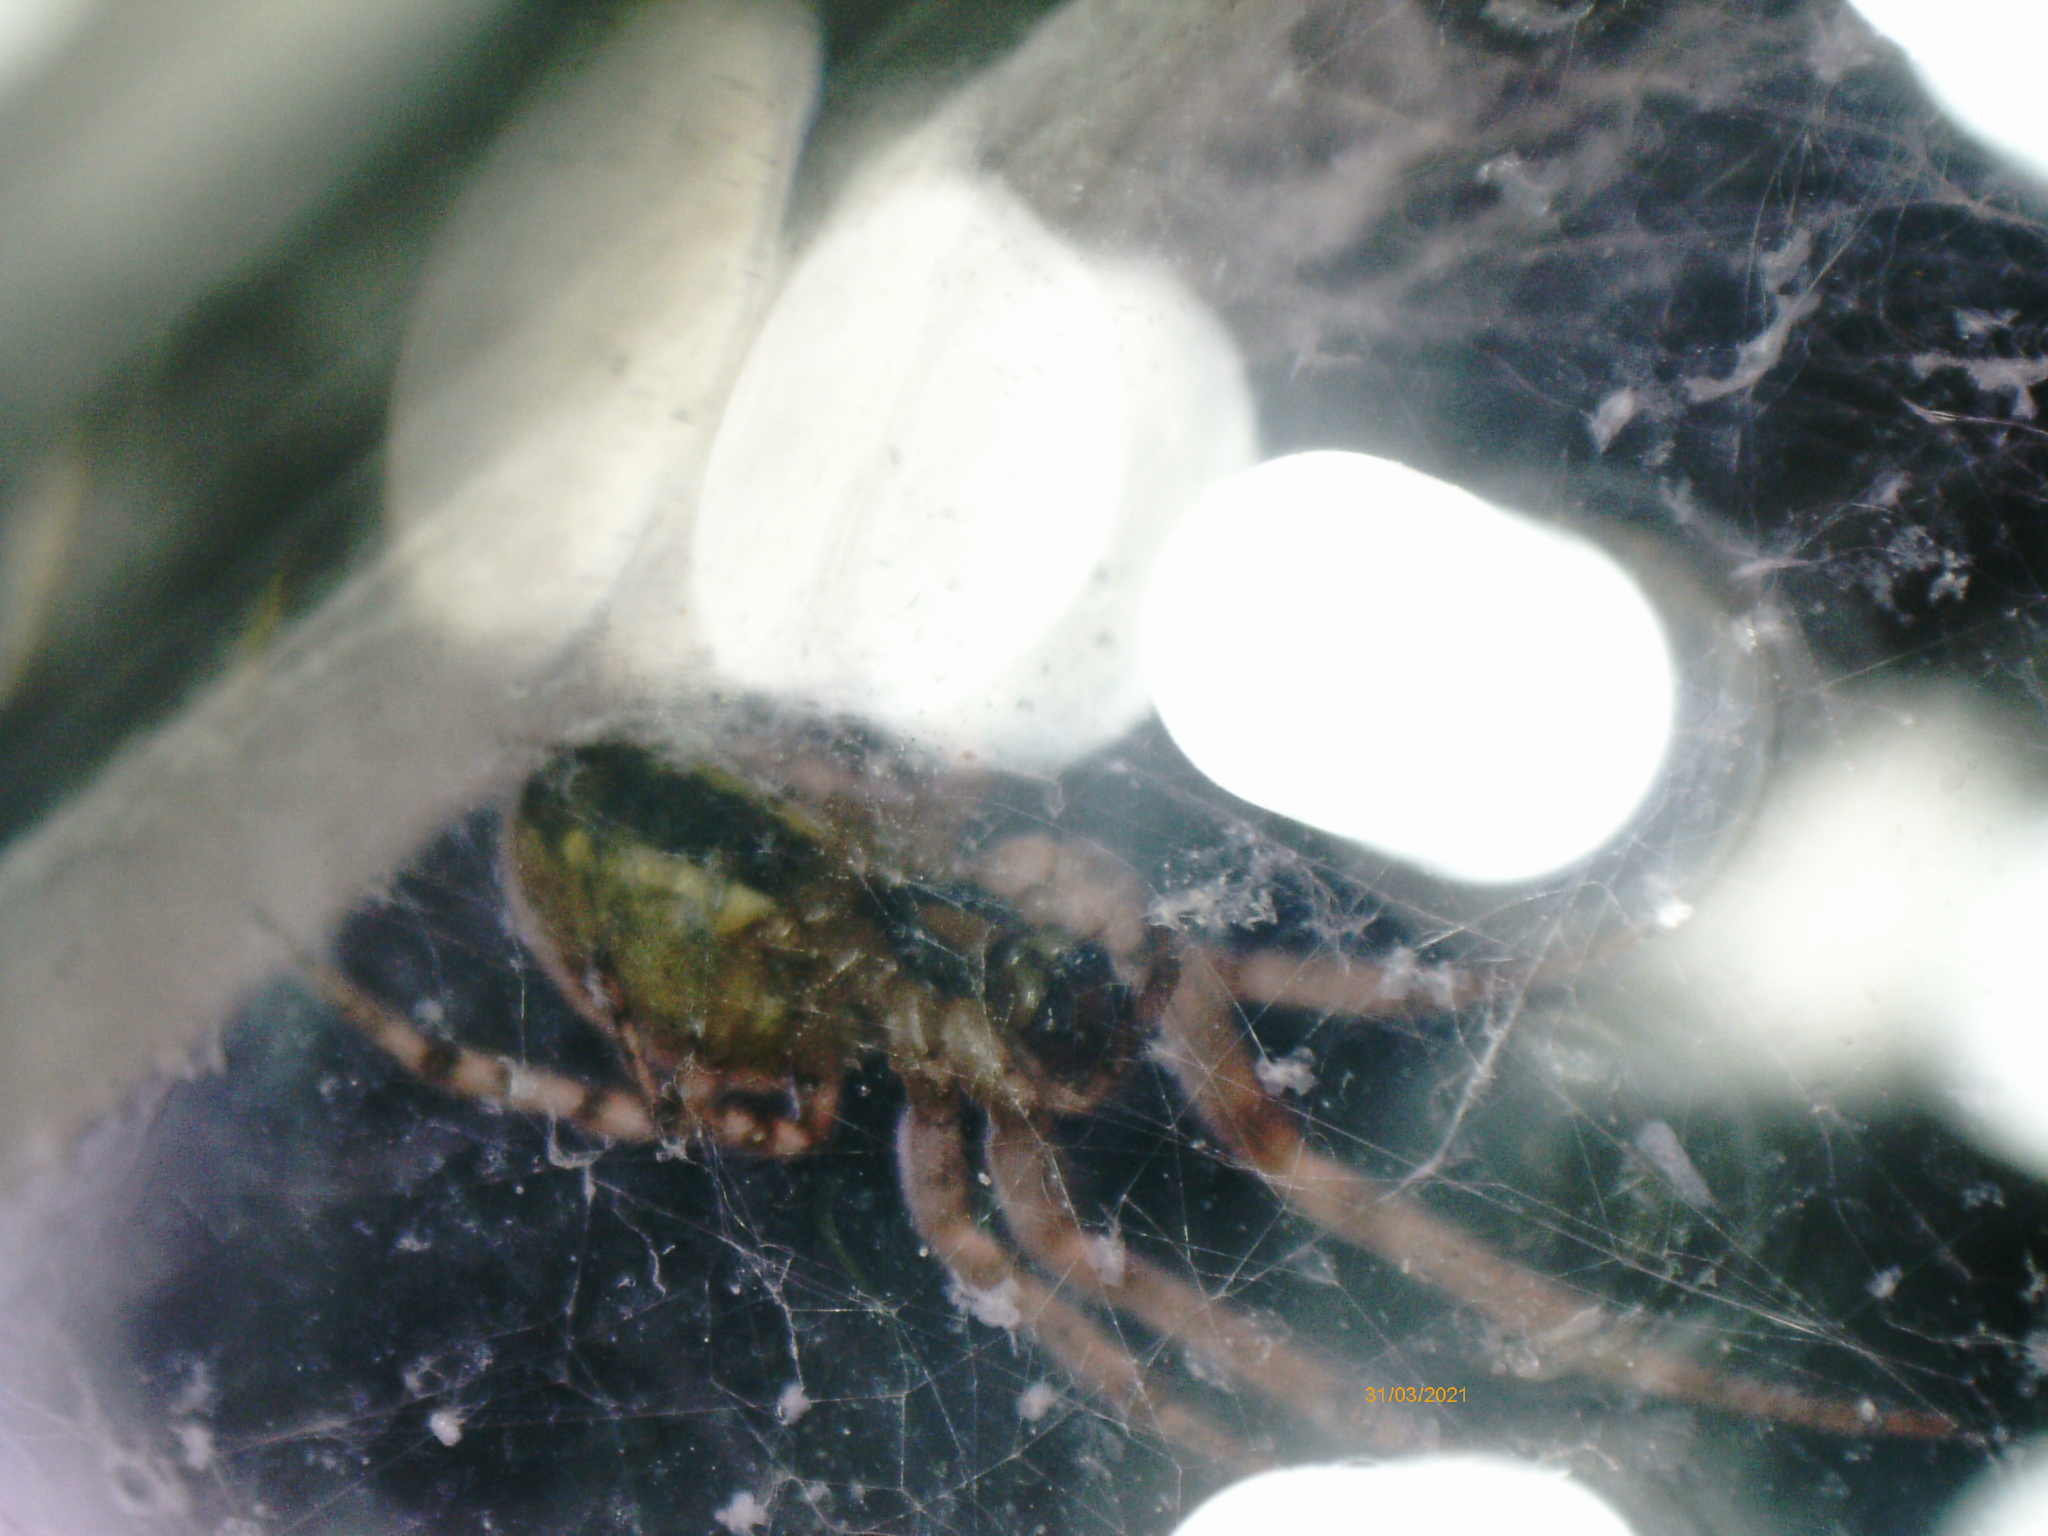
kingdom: Animalia
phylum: Arthropoda
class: Arachnida
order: Araneae
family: Araneidae
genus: Zygiella
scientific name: Zygiella x-notata
